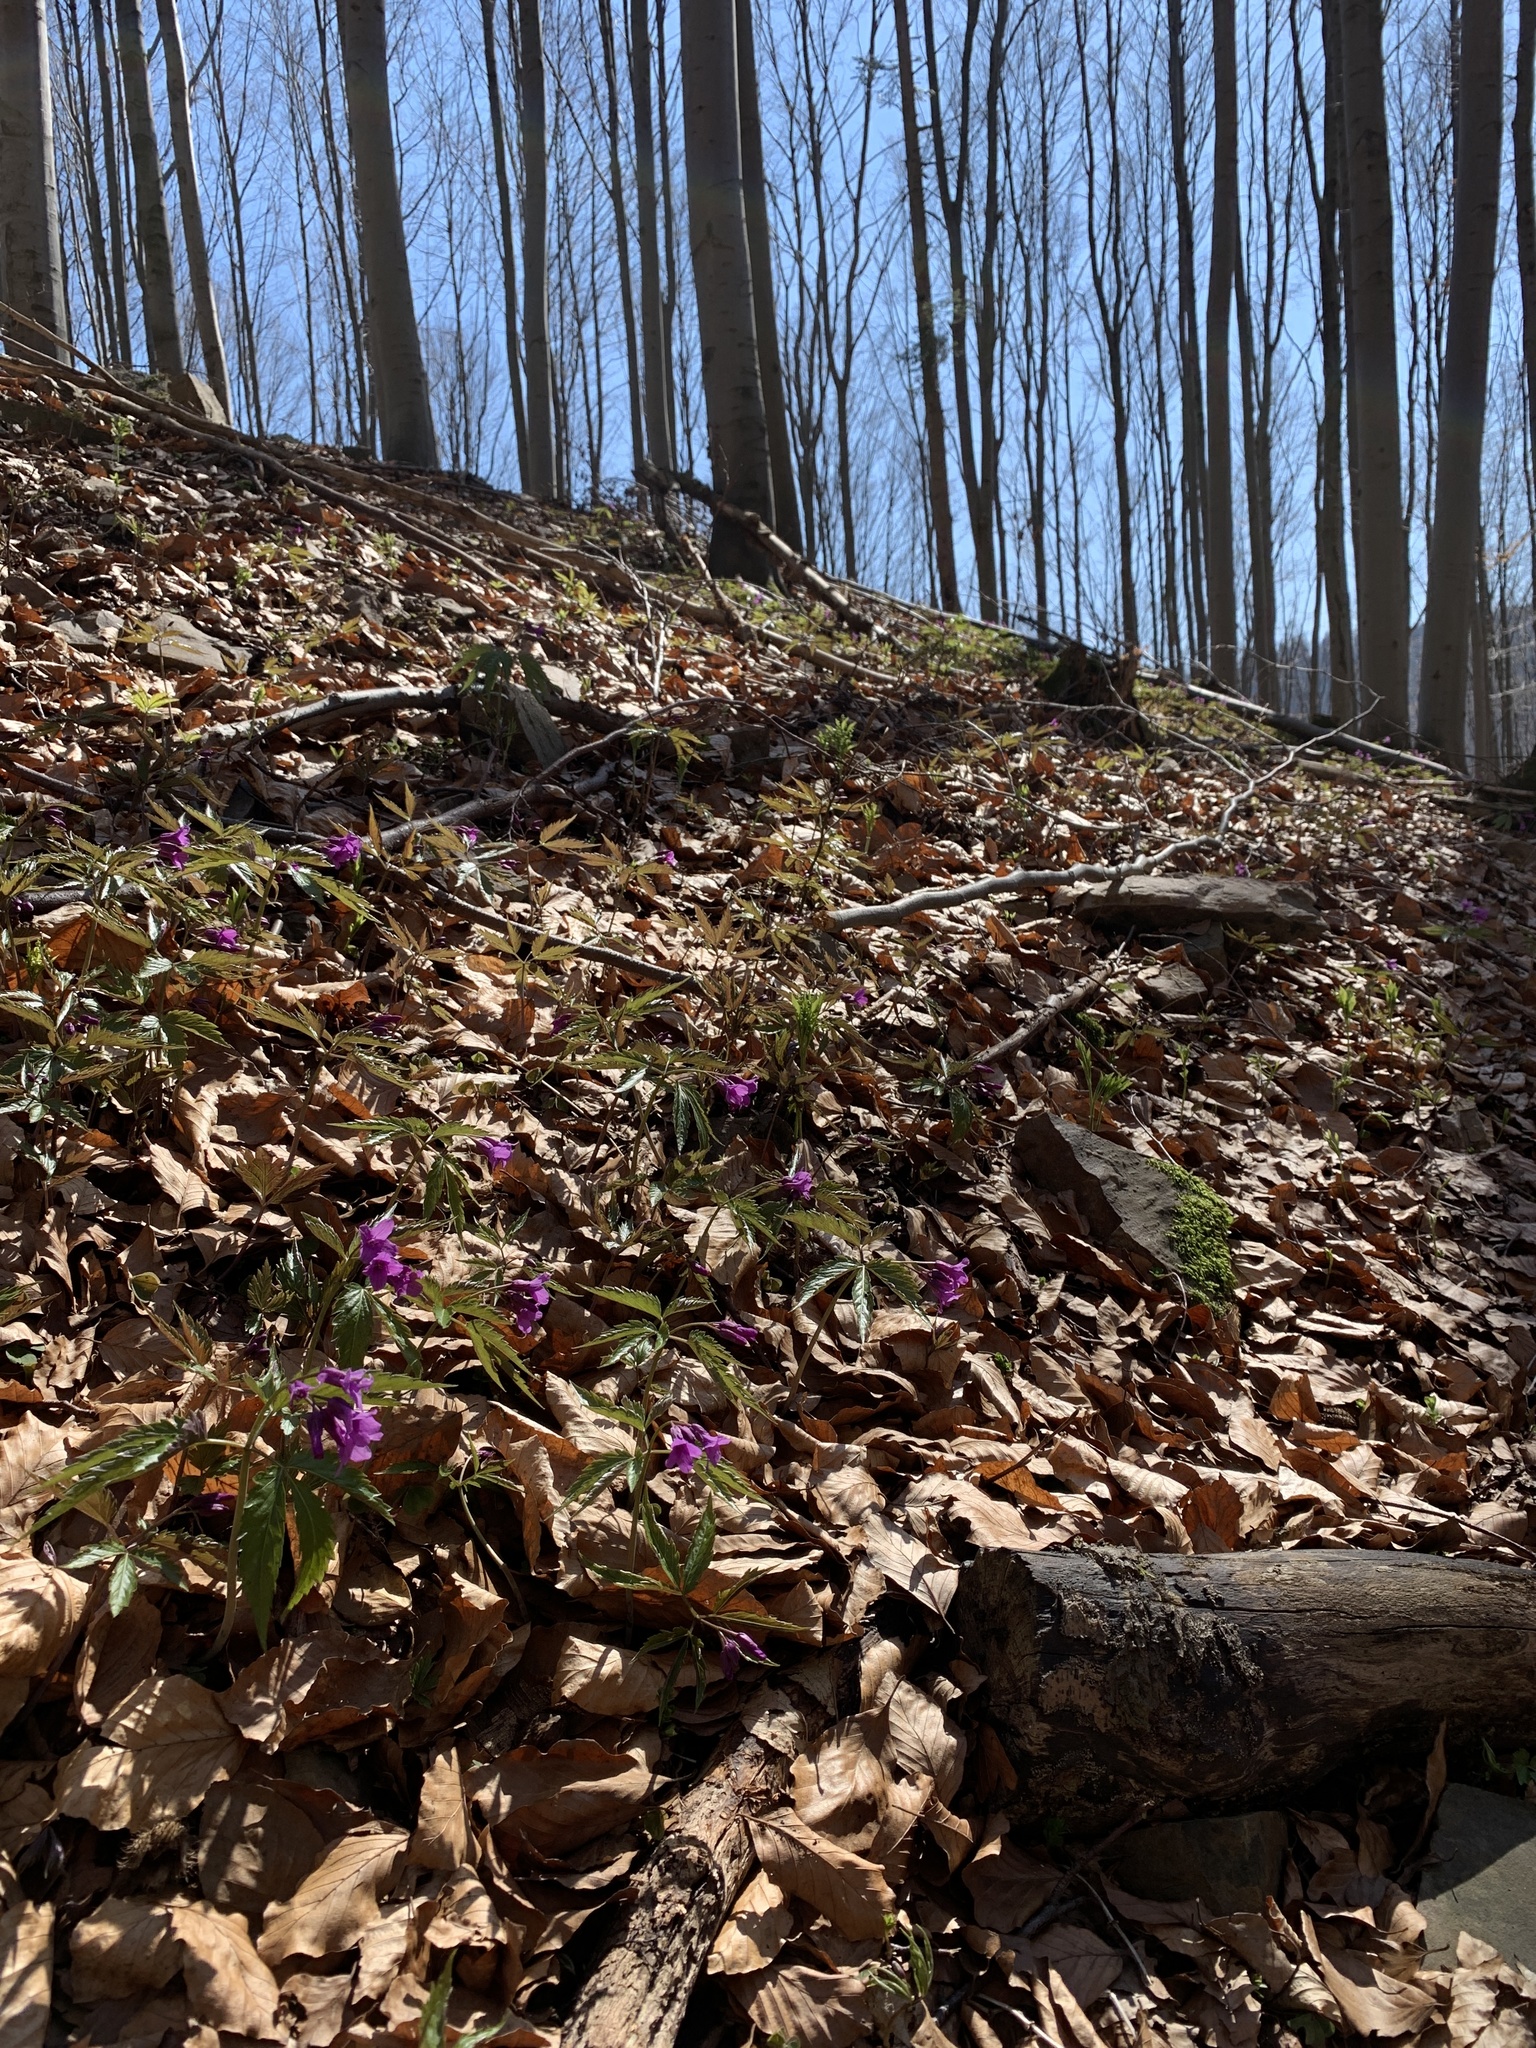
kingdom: Plantae
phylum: Tracheophyta
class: Magnoliopsida
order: Brassicales
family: Brassicaceae
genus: Cardamine
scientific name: Cardamine glanduligera
